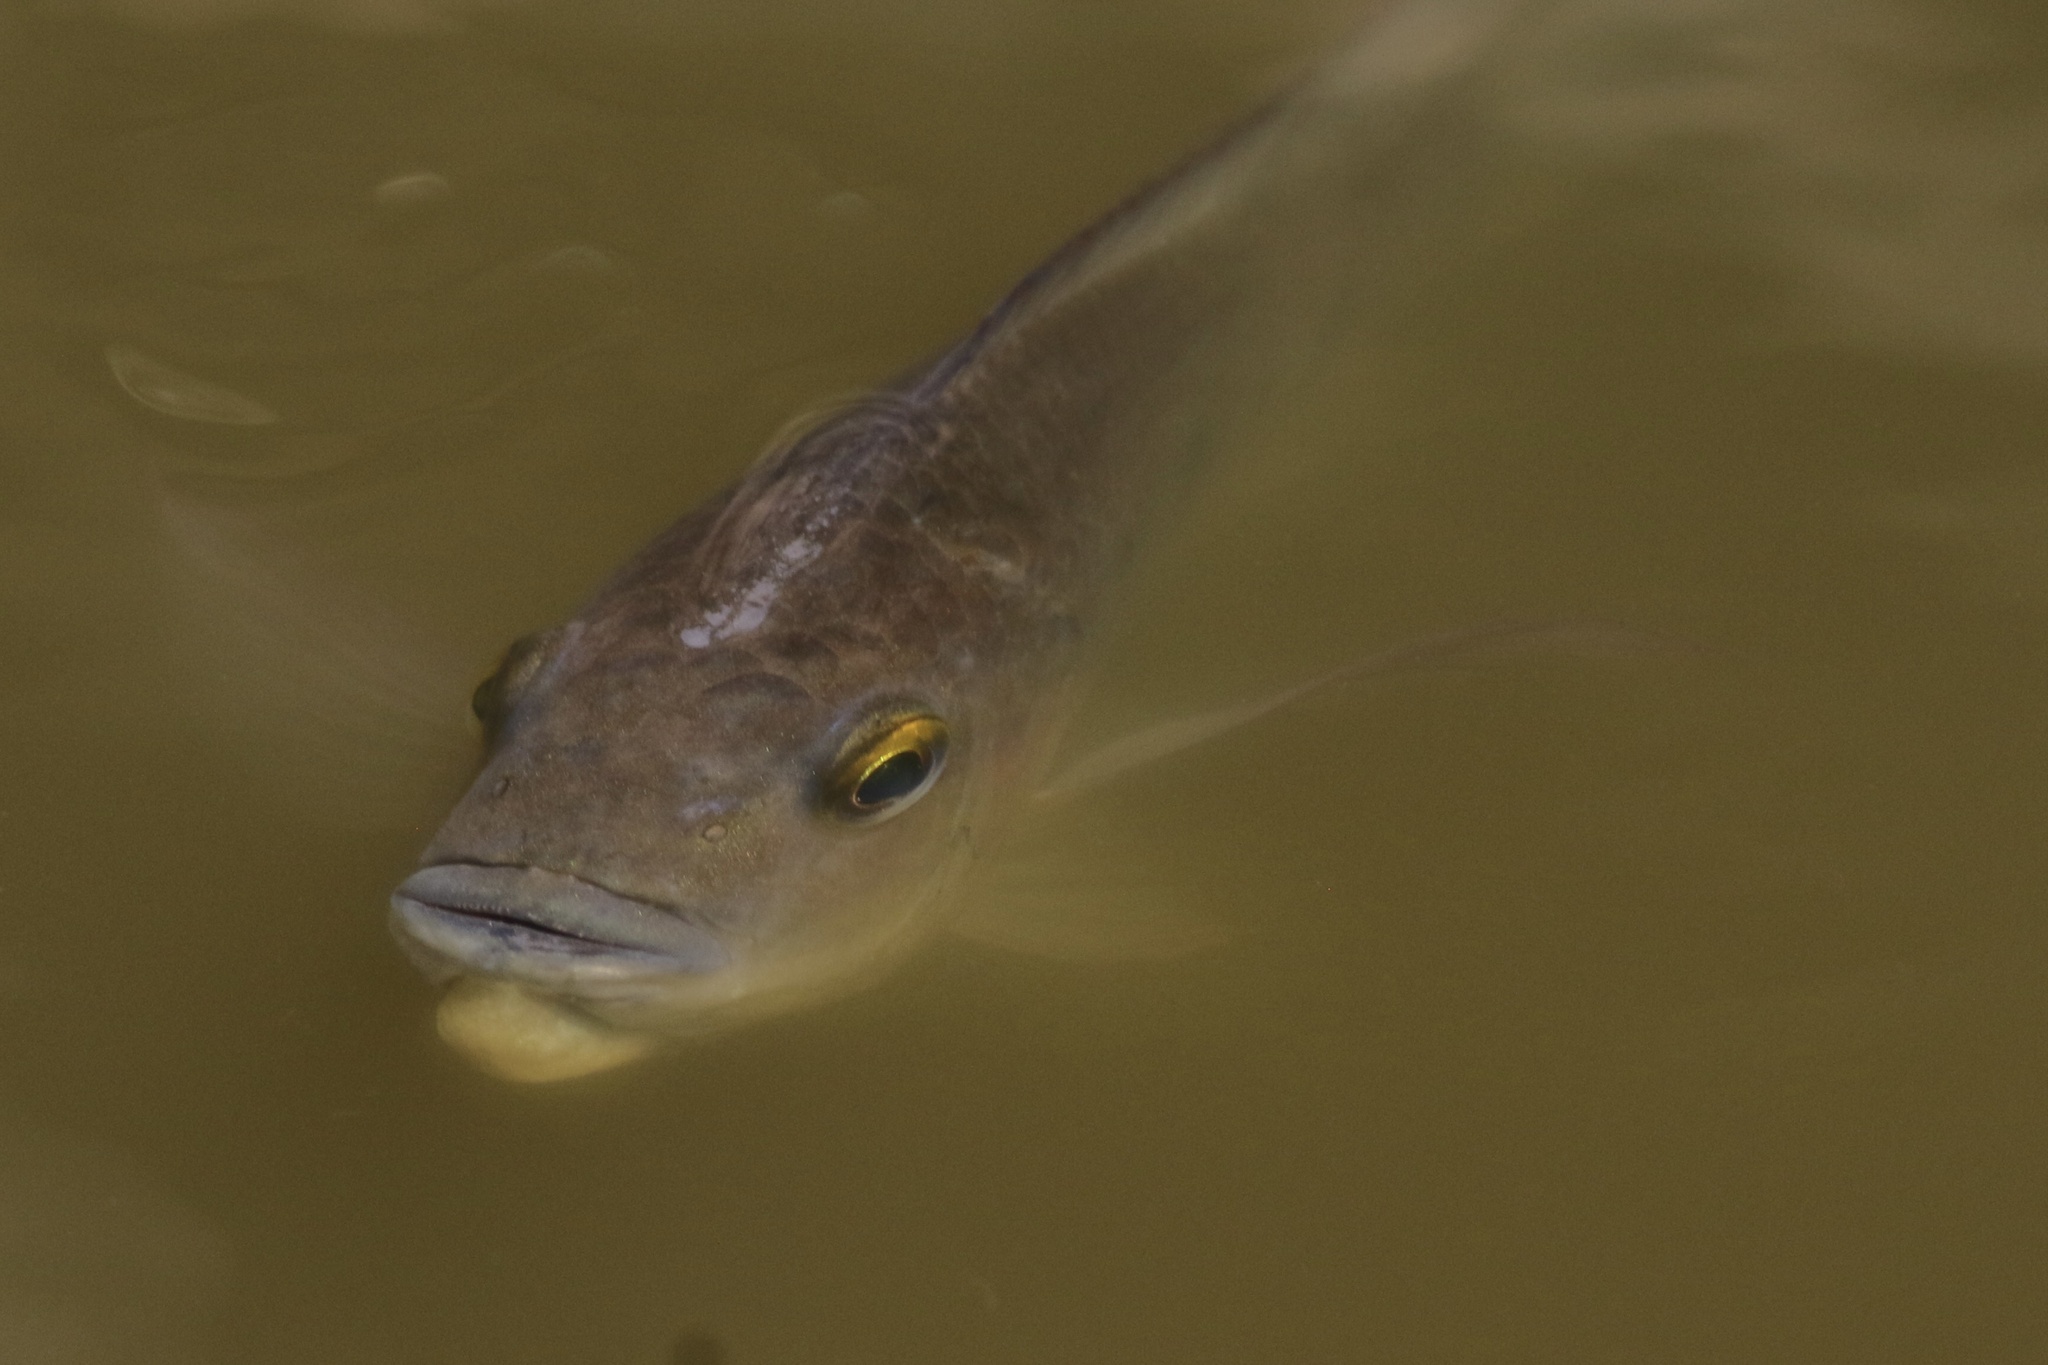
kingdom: Animalia
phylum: Chordata
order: Perciformes
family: Cichlidae
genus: Sarotherodon
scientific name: Sarotherodon melanotheron
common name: Blackchin tilapia
